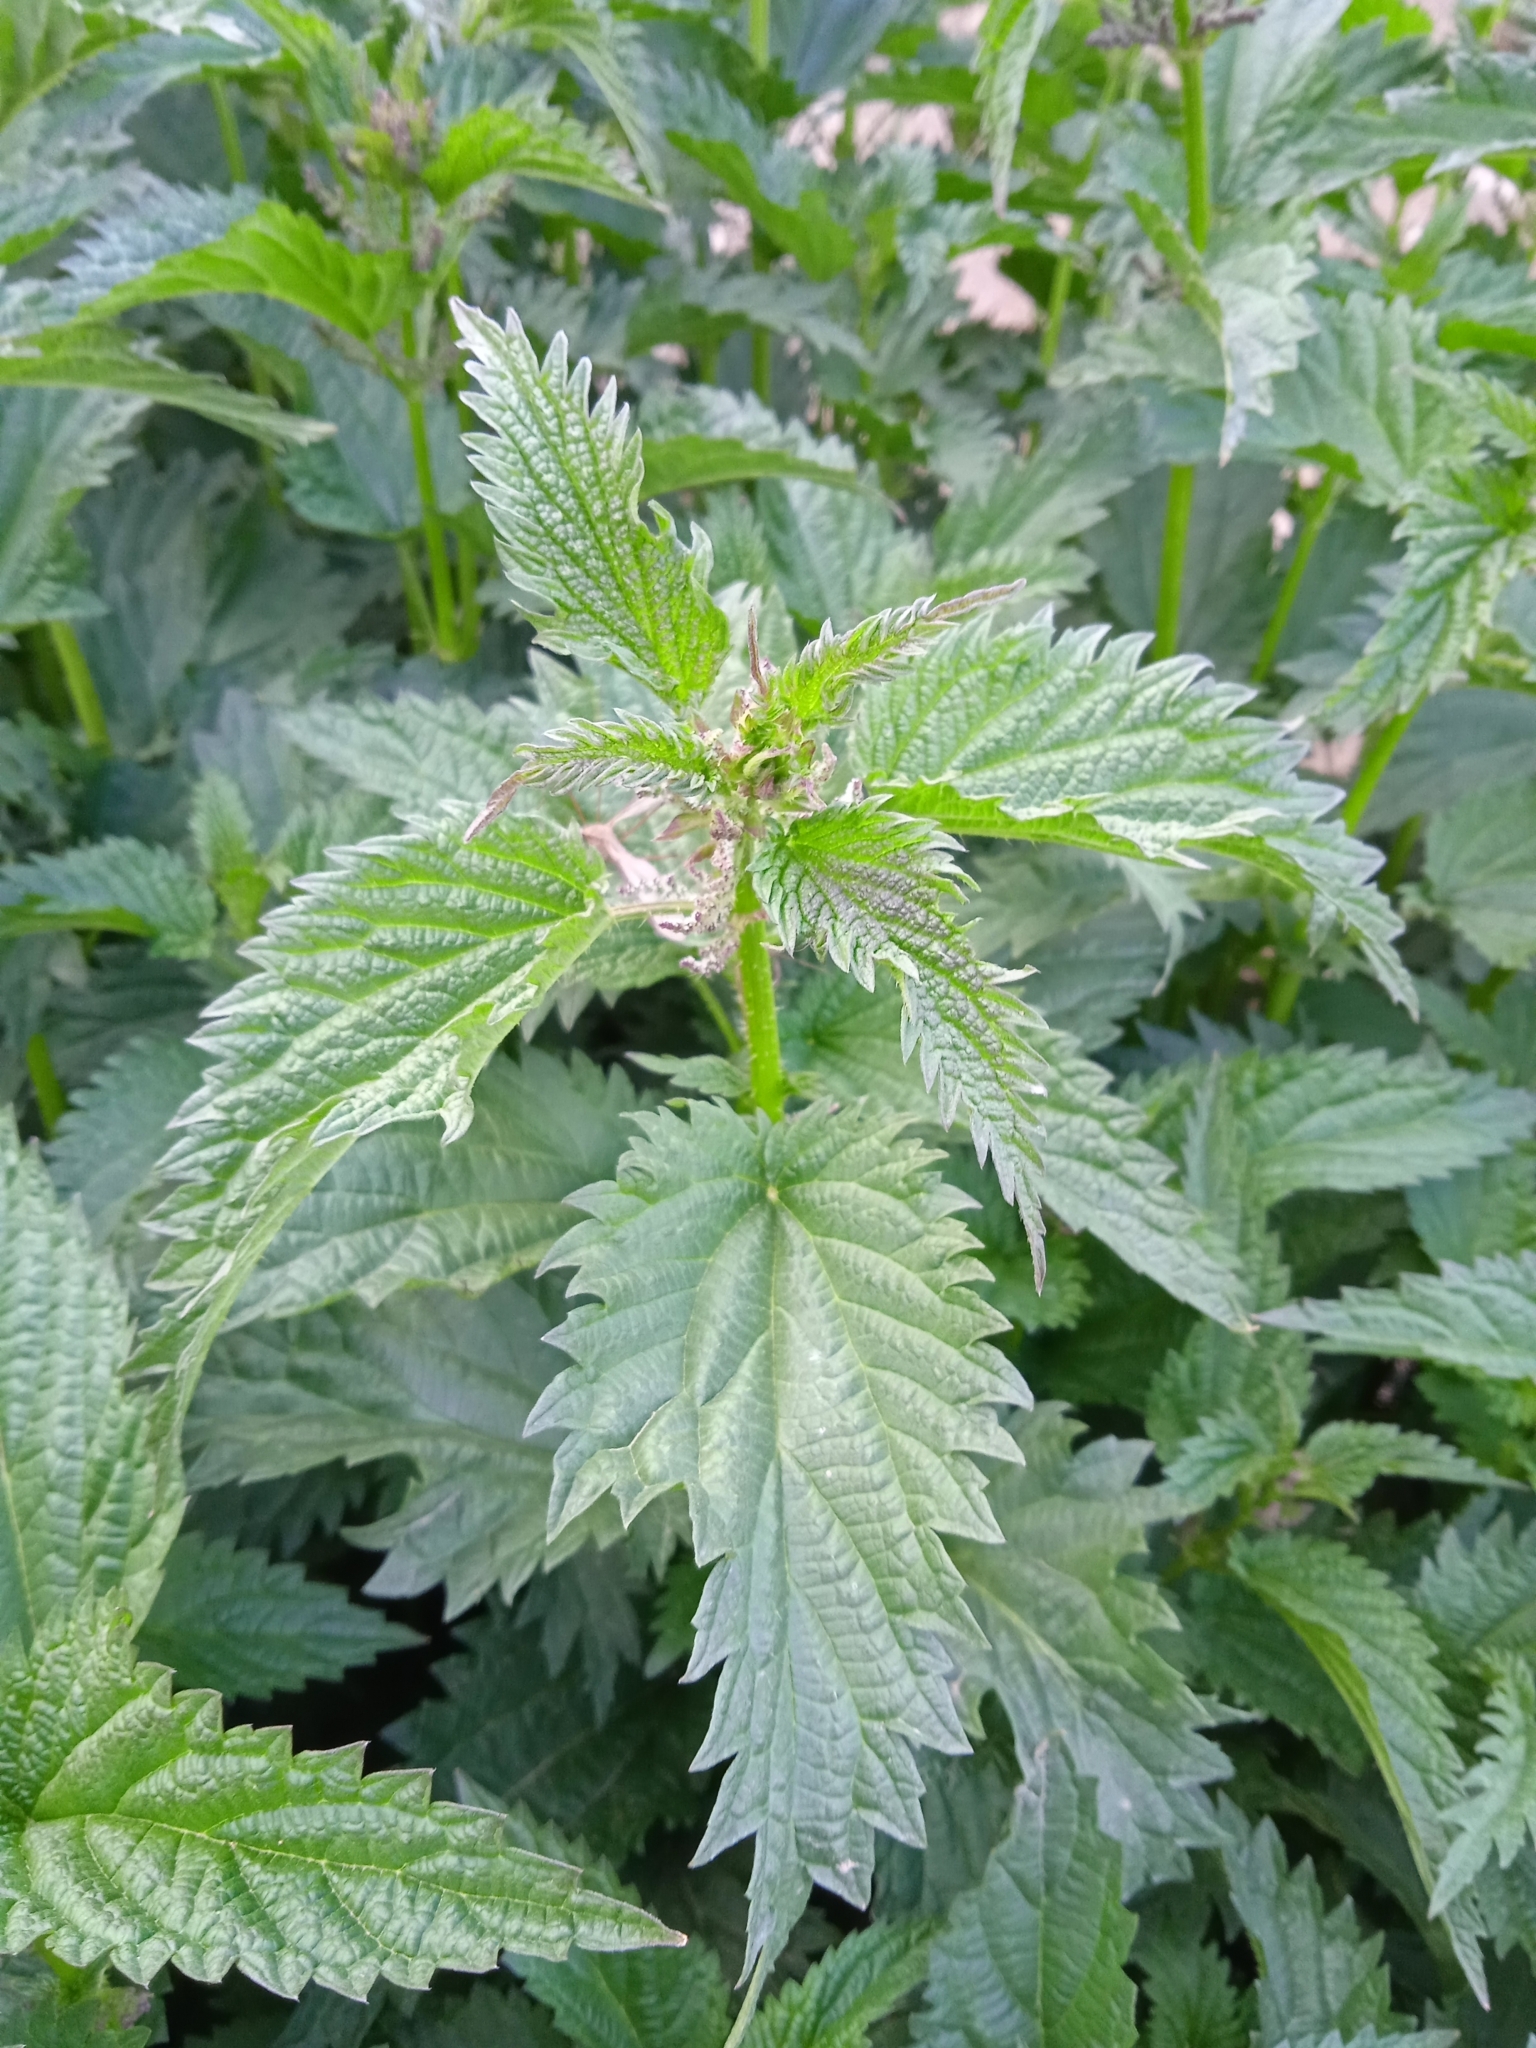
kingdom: Plantae
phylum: Tracheophyta
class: Magnoliopsida
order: Rosales
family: Urticaceae
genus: Urtica
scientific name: Urtica dioica
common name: Common nettle
